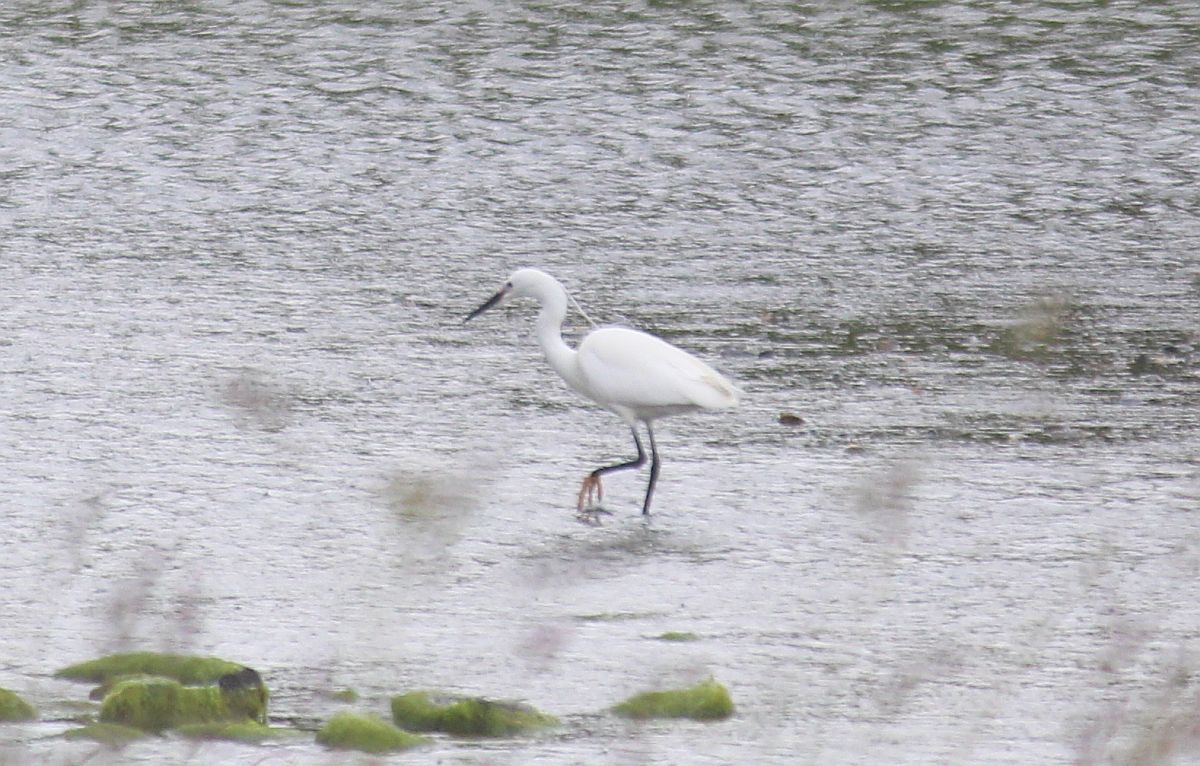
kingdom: Animalia
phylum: Chordata
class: Aves
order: Pelecaniformes
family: Ardeidae
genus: Egretta
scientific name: Egretta garzetta
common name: Little egret
